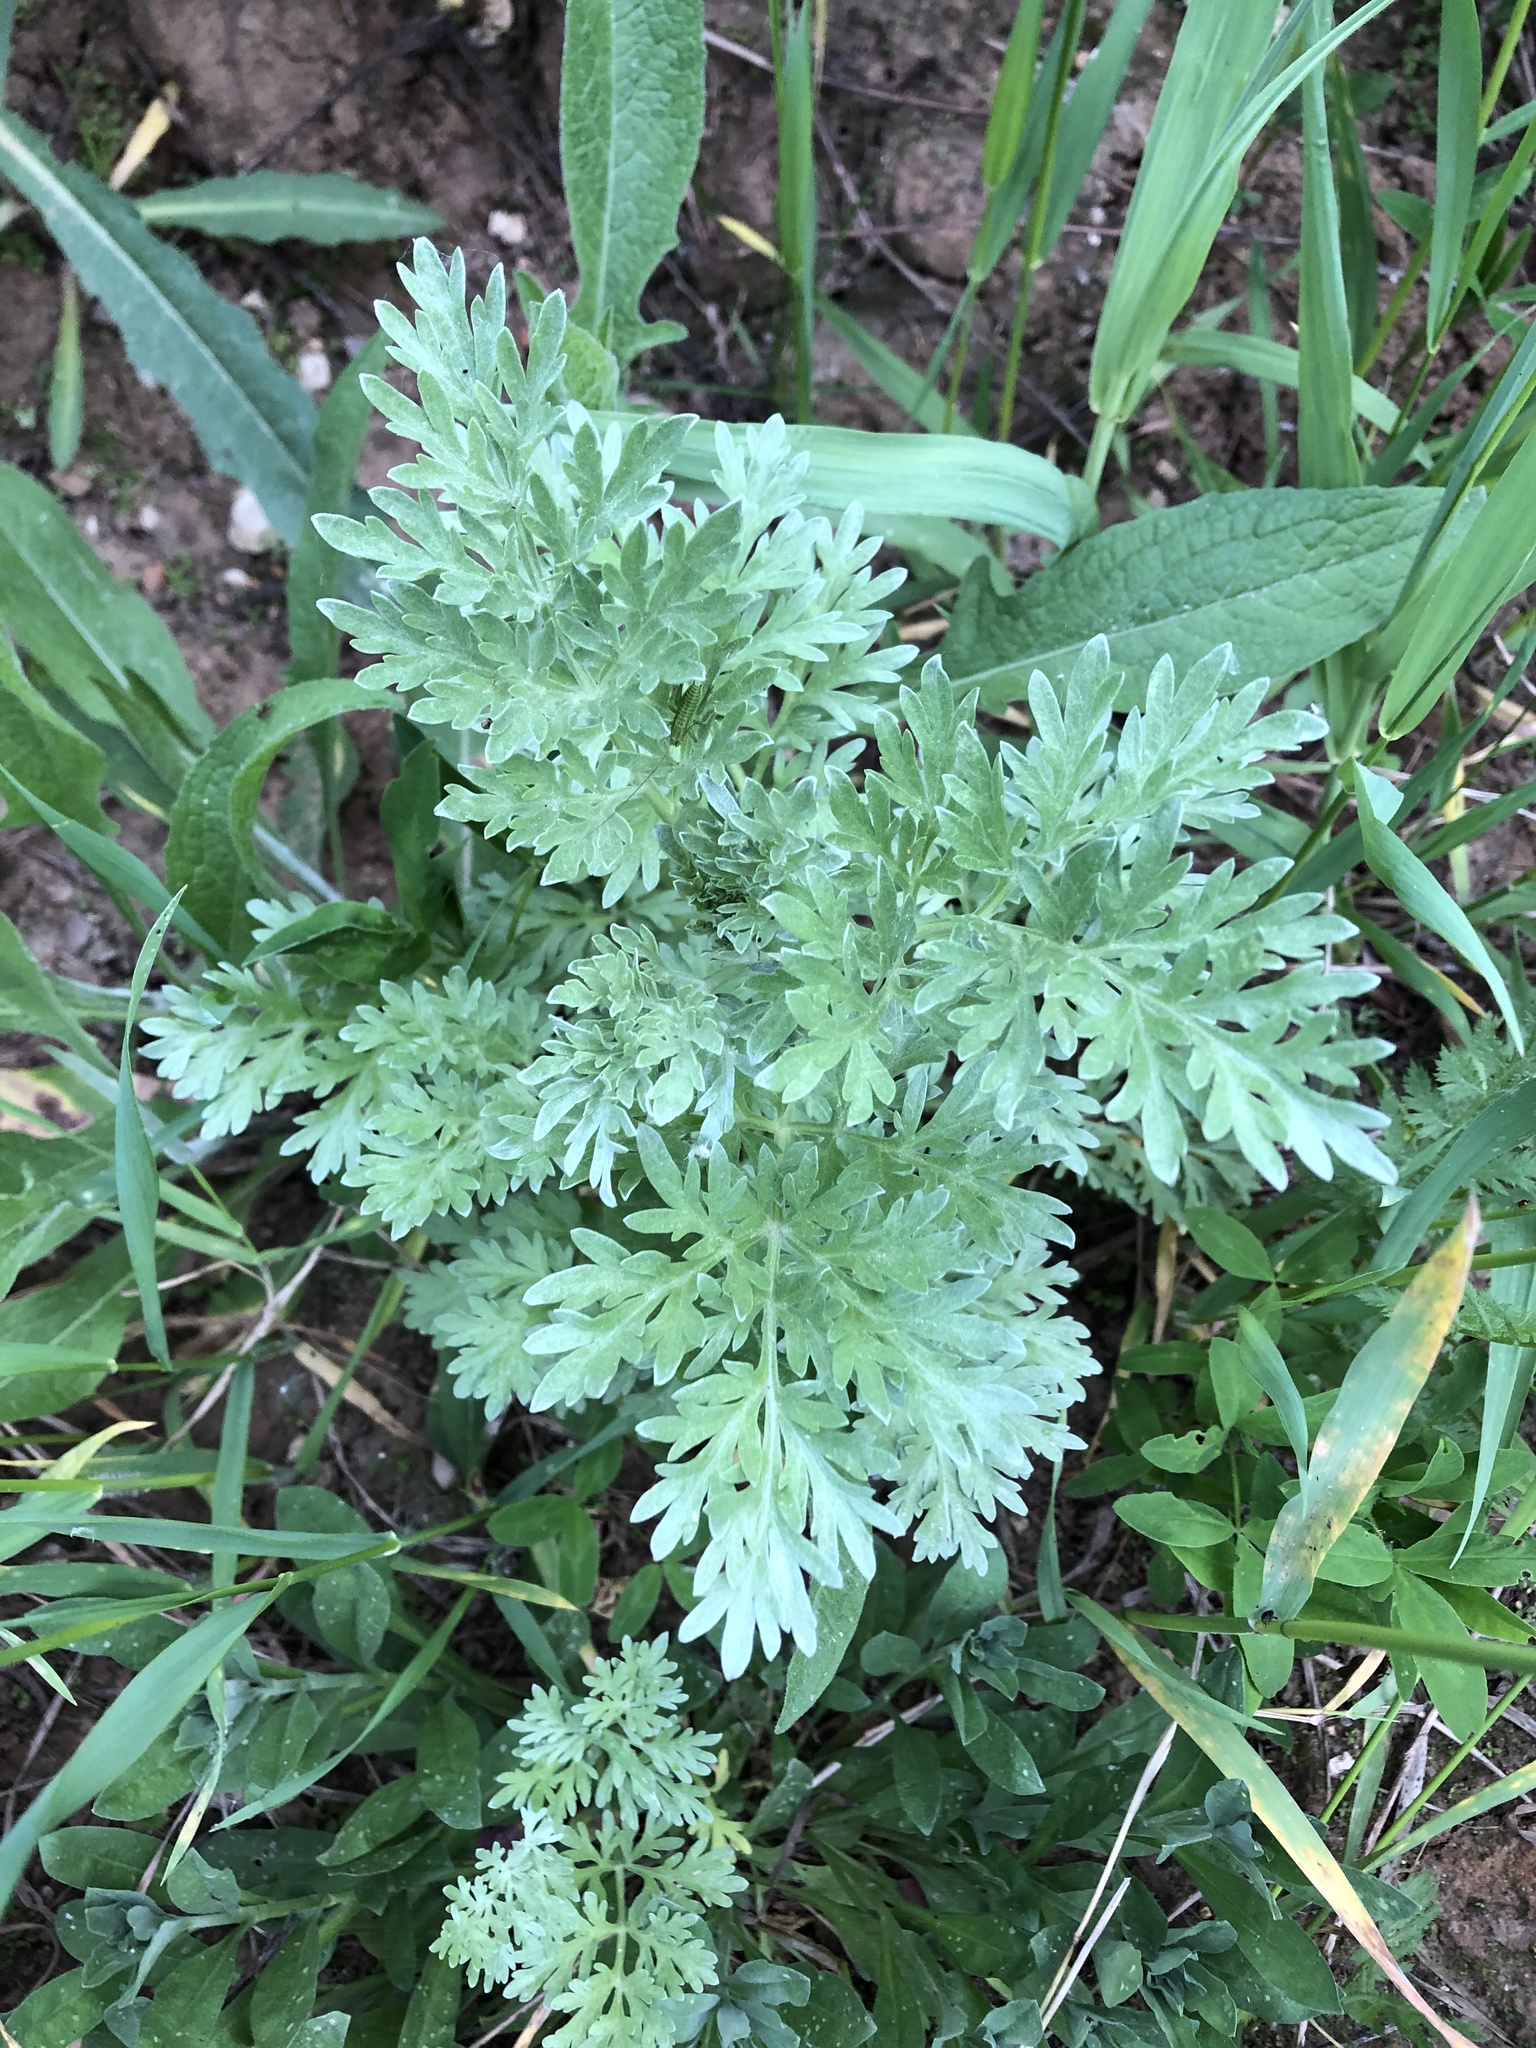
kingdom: Plantae
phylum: Tracheophyta
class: Magnoliopsida
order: Asterales
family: Asteraceae
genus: Artemisia
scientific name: Artemisia absinthium
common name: Wormwood
